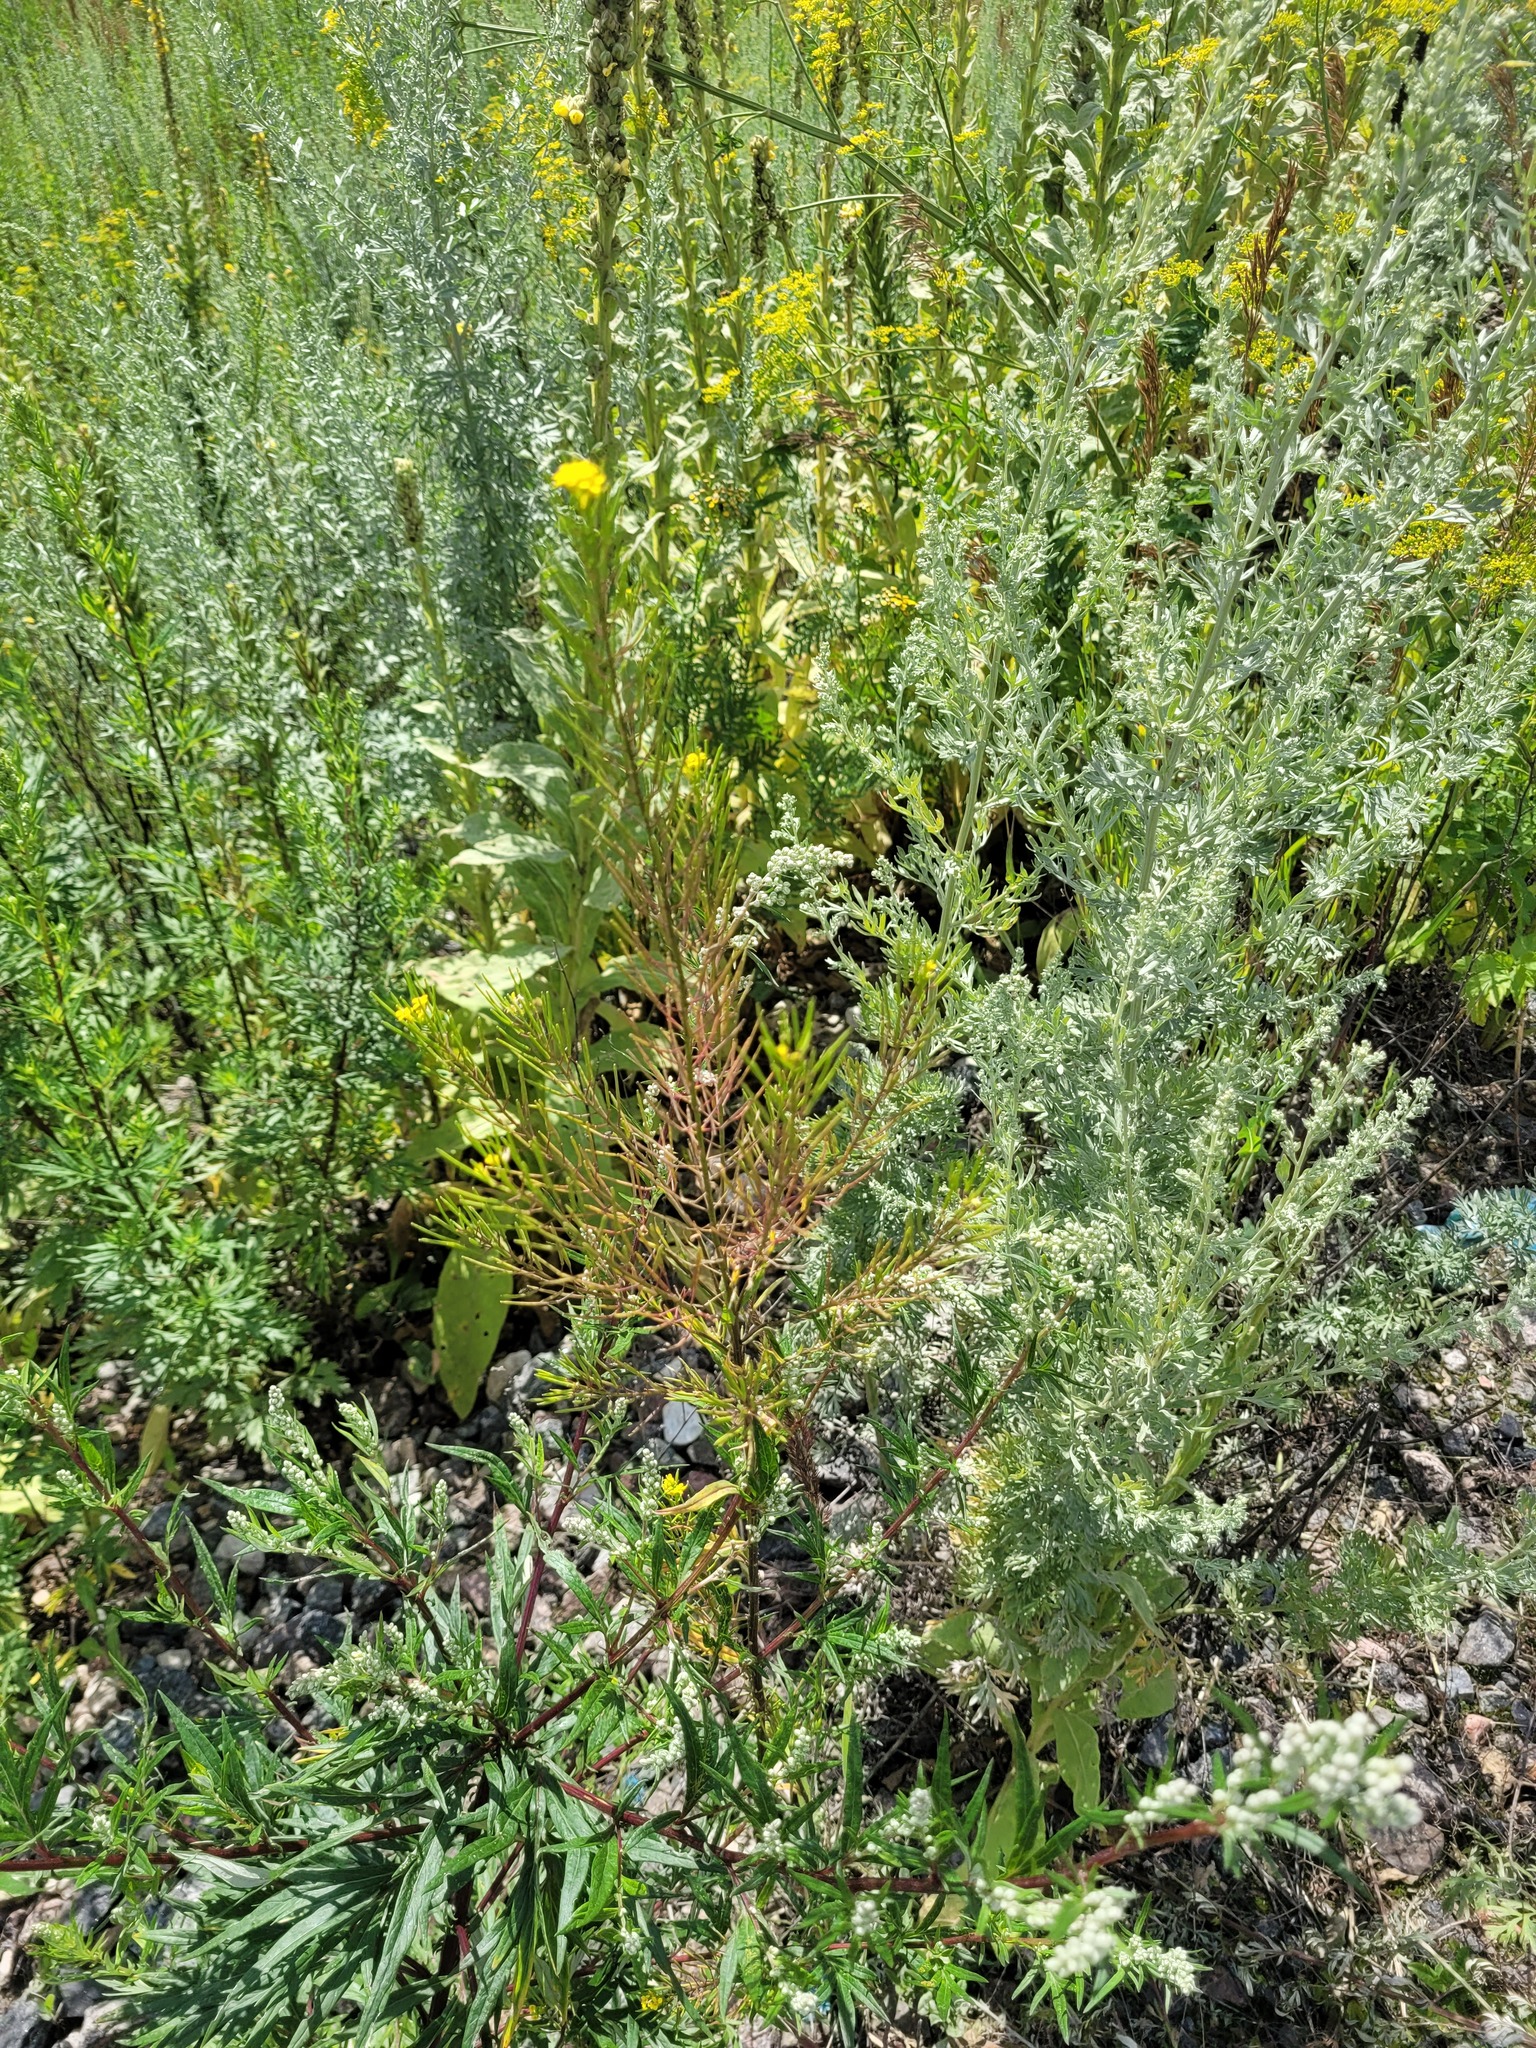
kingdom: Plantae
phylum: Tracheophyta
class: Magnoliopsida
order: Brassicales
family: Brassicaceae
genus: Erysimum
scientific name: Erysimum cheiranthoides
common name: Treacle mustard
